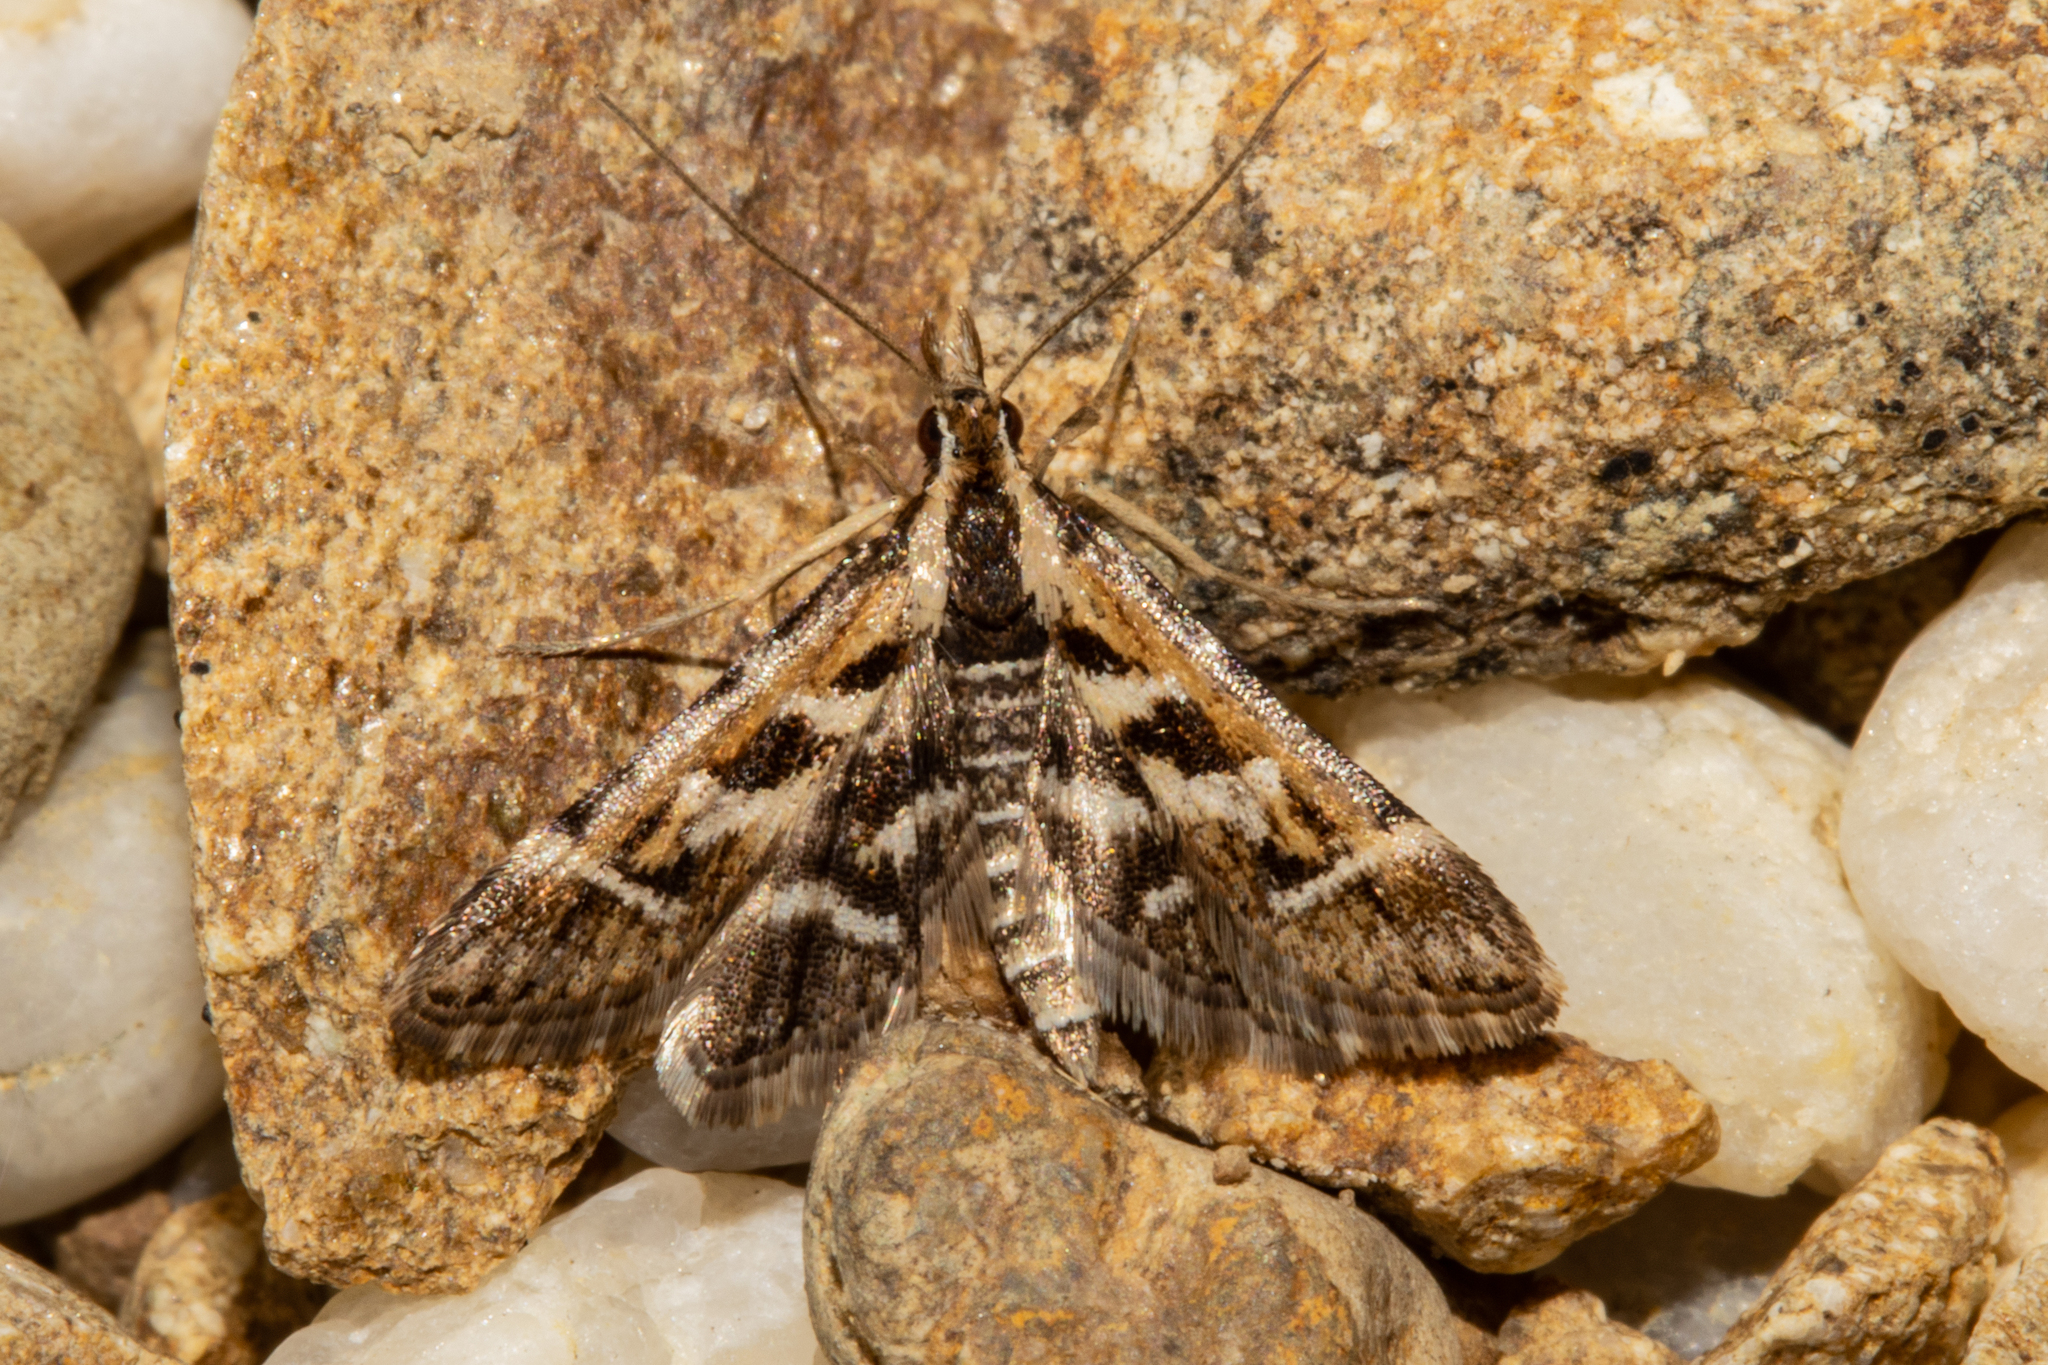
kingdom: Animalia
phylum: Arthropoda
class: Insecta
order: Lepidoptera
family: Crambidae
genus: Diasemia
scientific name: Diasemia grammalis
